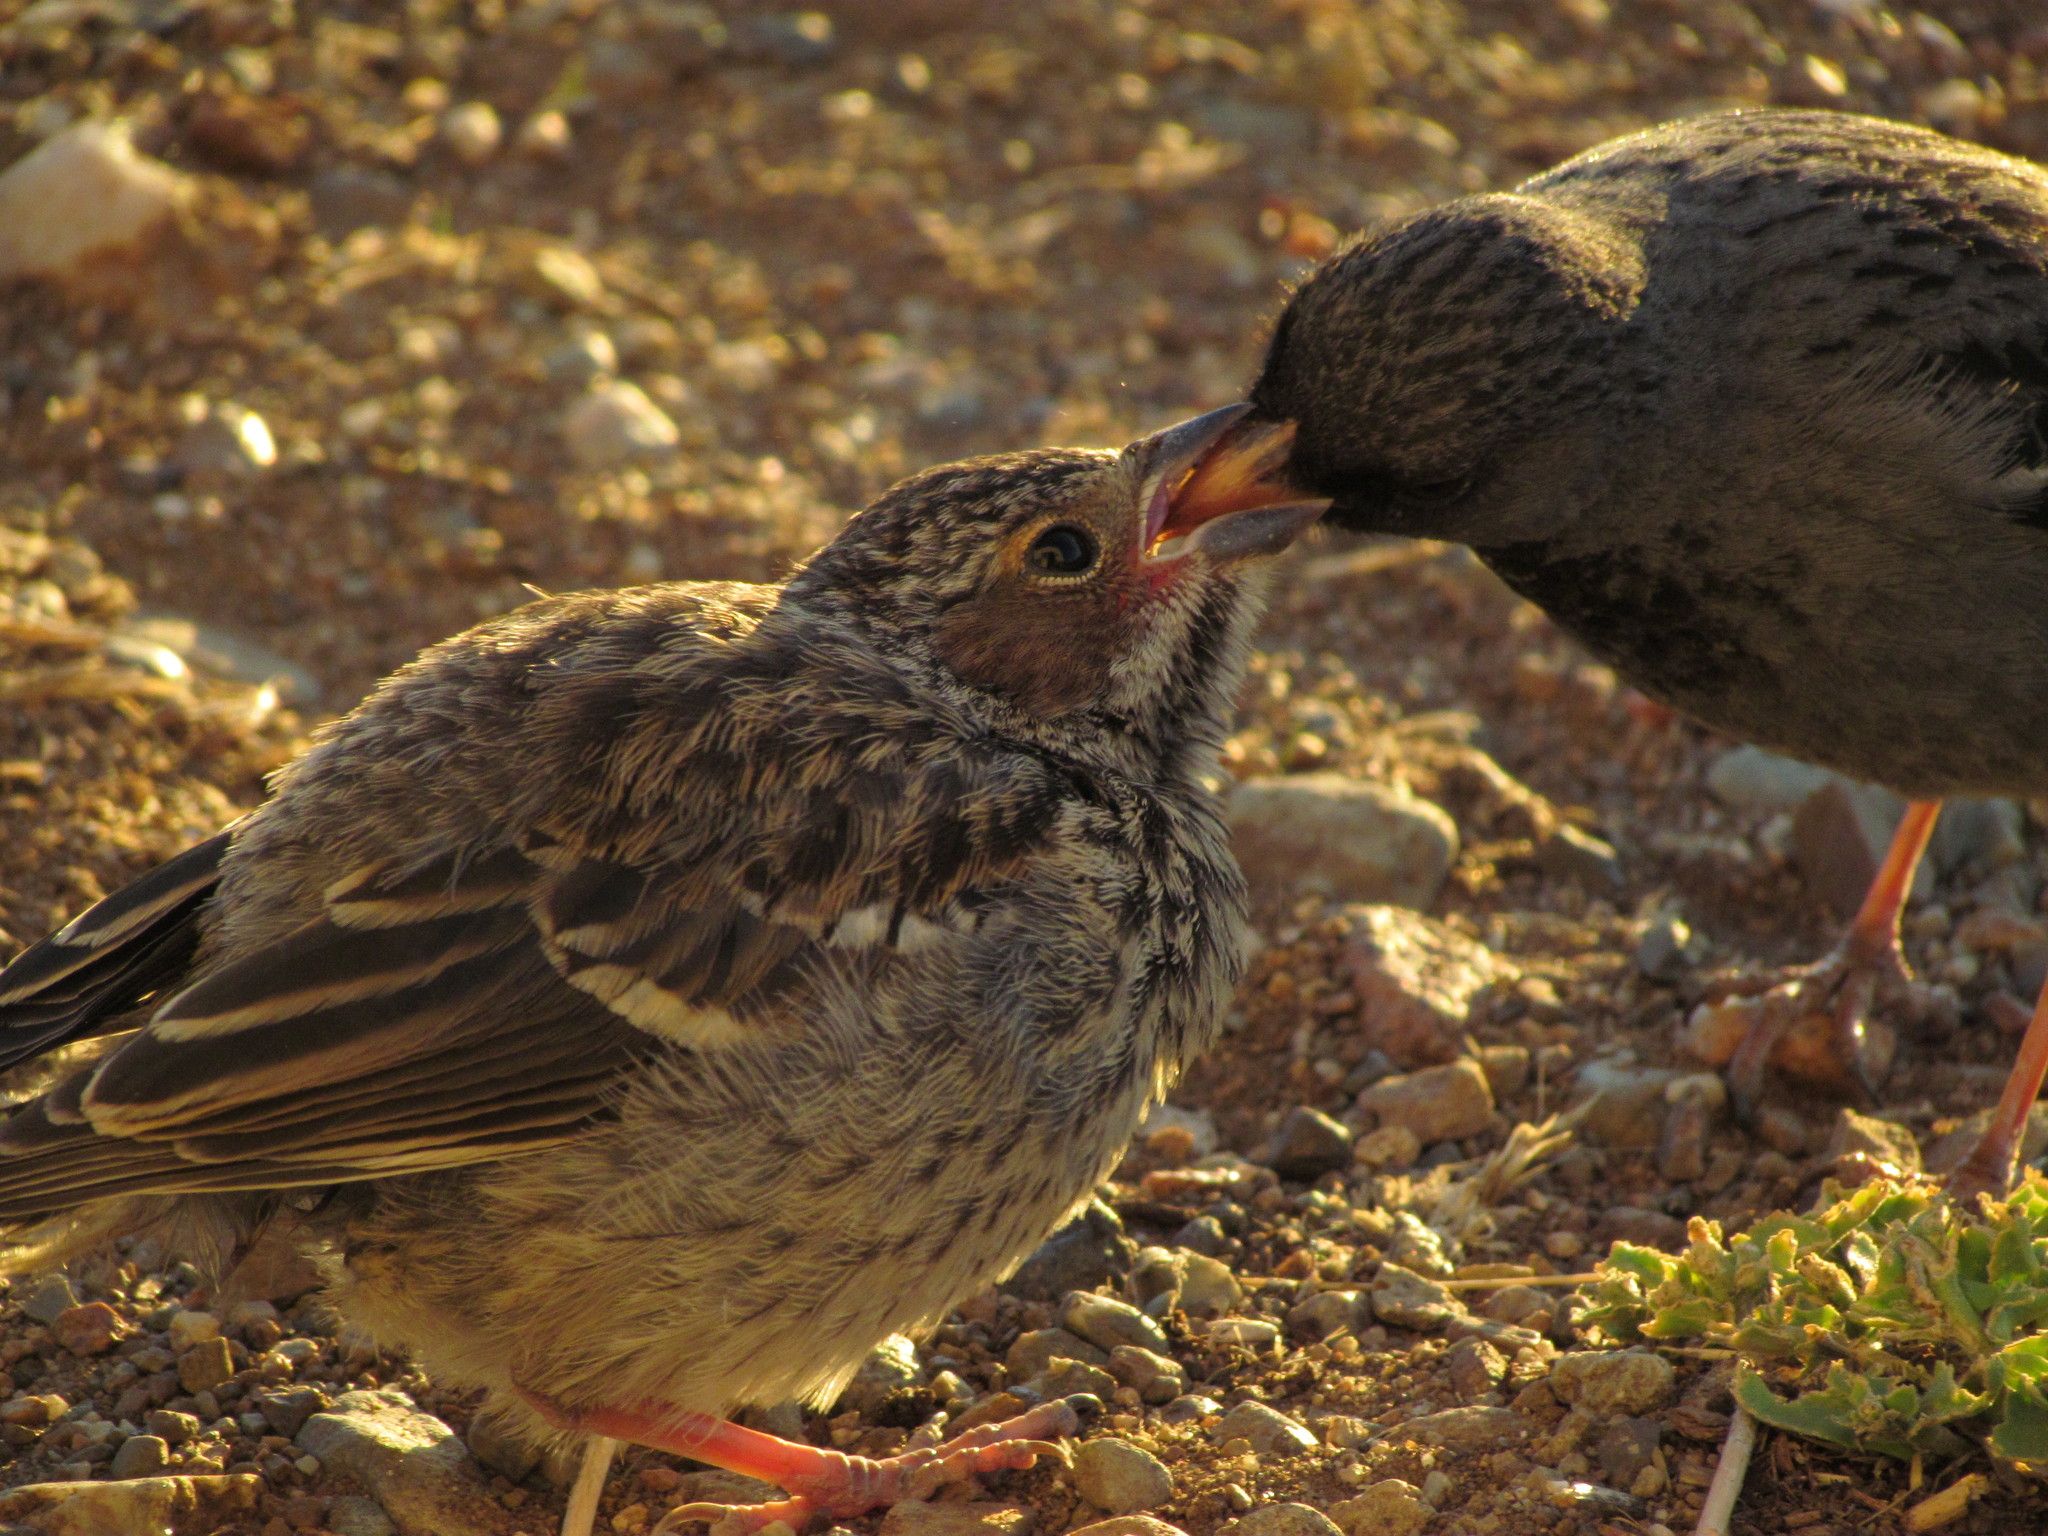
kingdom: Animalia
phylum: Chordata
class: Aves
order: Passeriformes
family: Thraupidae
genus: Rhopospina
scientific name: Rhopospina fruticeti
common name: Mourning sierra finch
